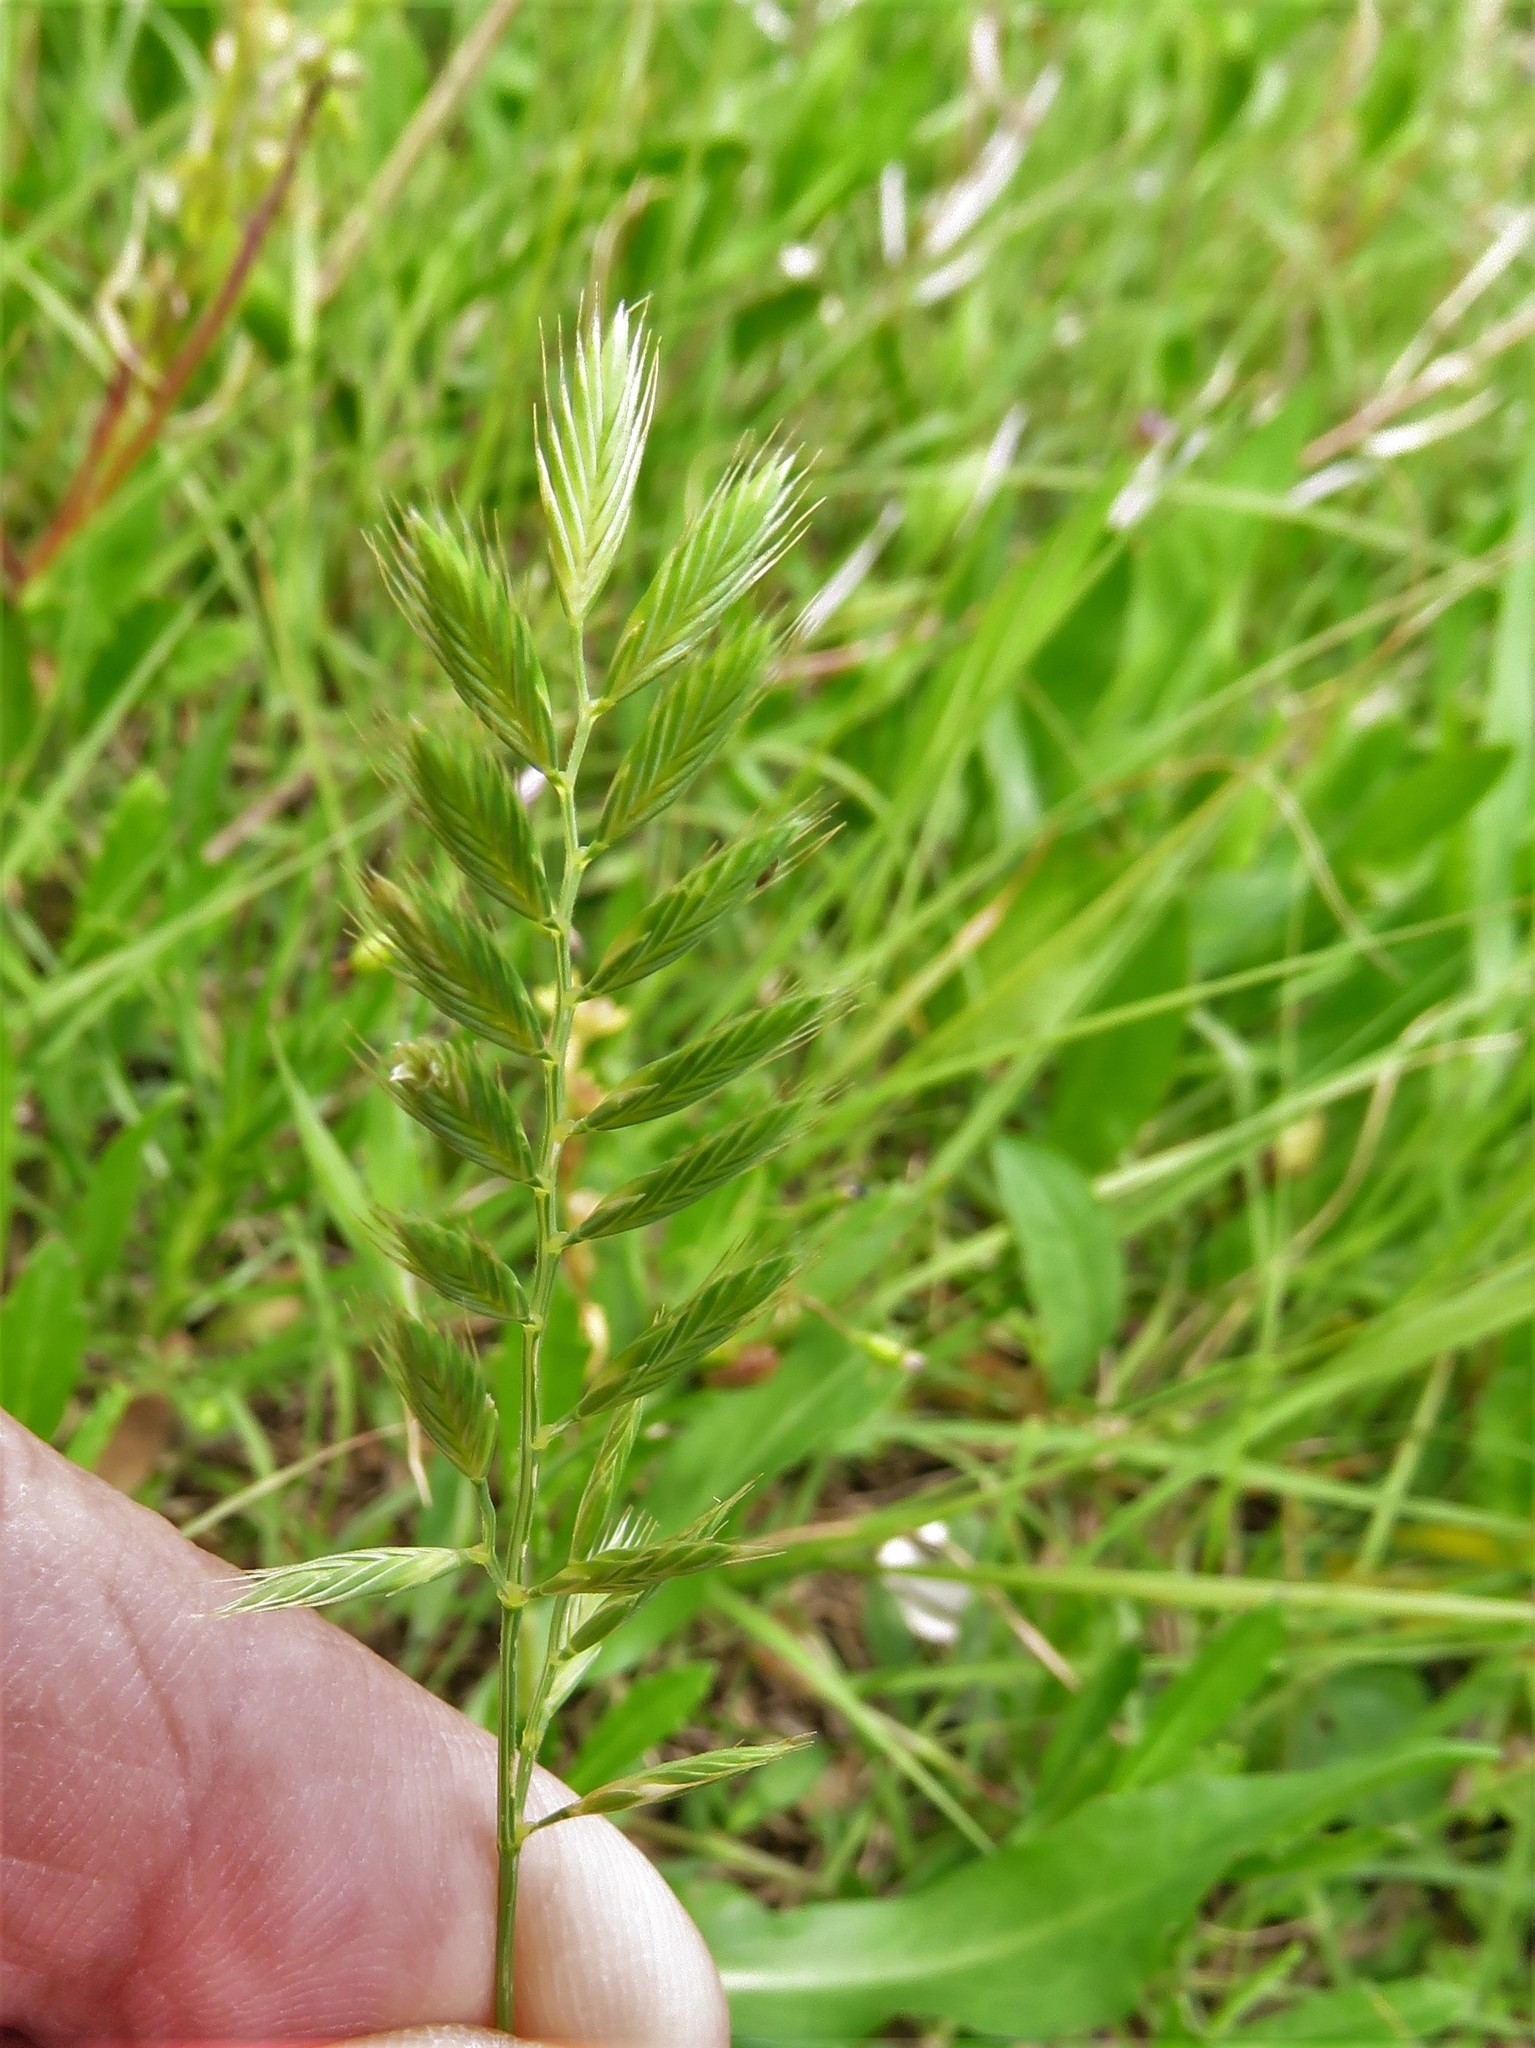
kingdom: Plantae
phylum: Tracheophyta
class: Liliopsida
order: Poales
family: Poaceae
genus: Festuca
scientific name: Festuca octoflora
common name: Sixweeks grass
